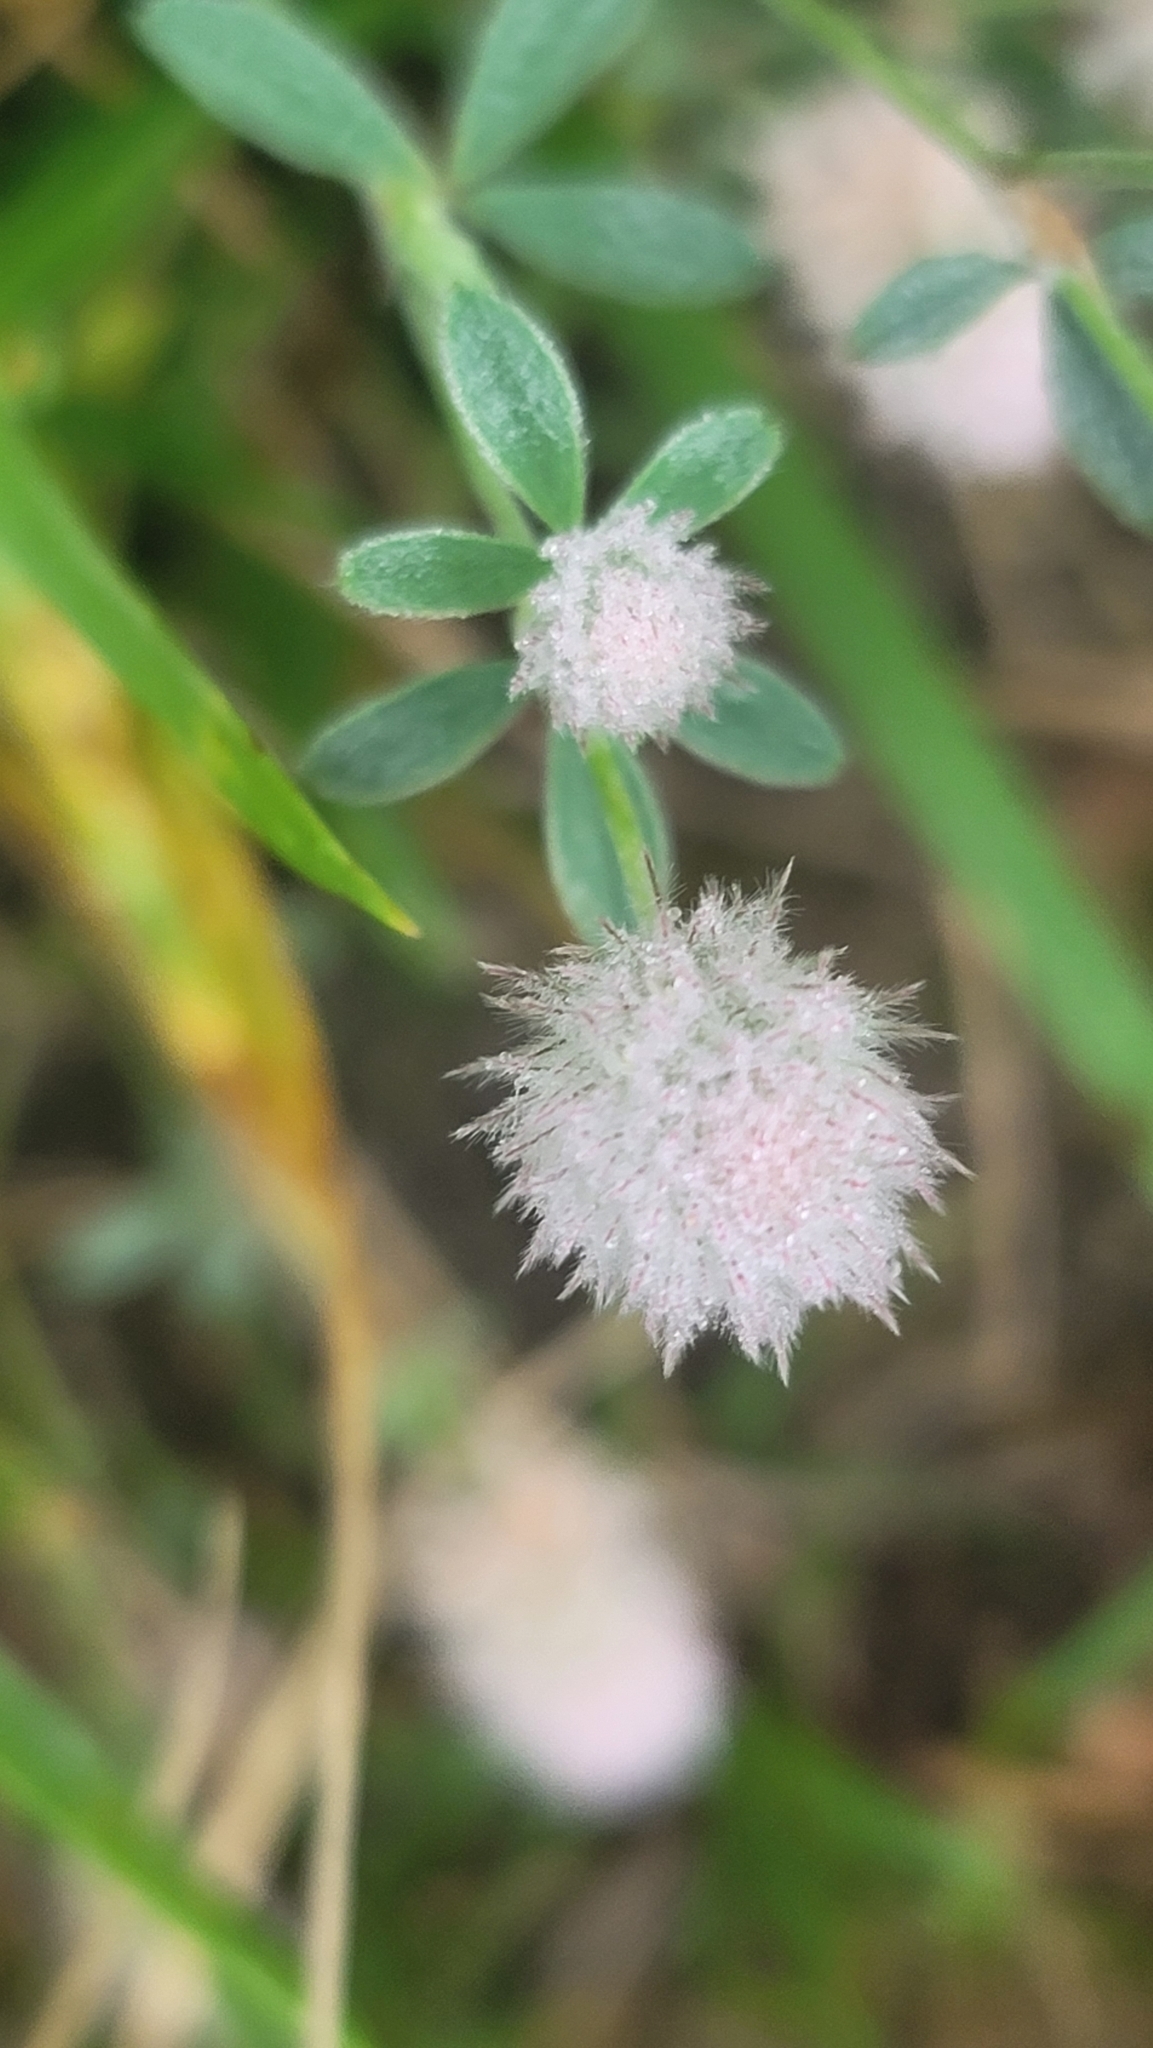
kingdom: Plantae
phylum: Tracheophyta
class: Magnoliopsida
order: Fabales
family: Fabaceae
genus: Trifolium
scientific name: Trifolium arvense
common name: Hare's-foot clover
